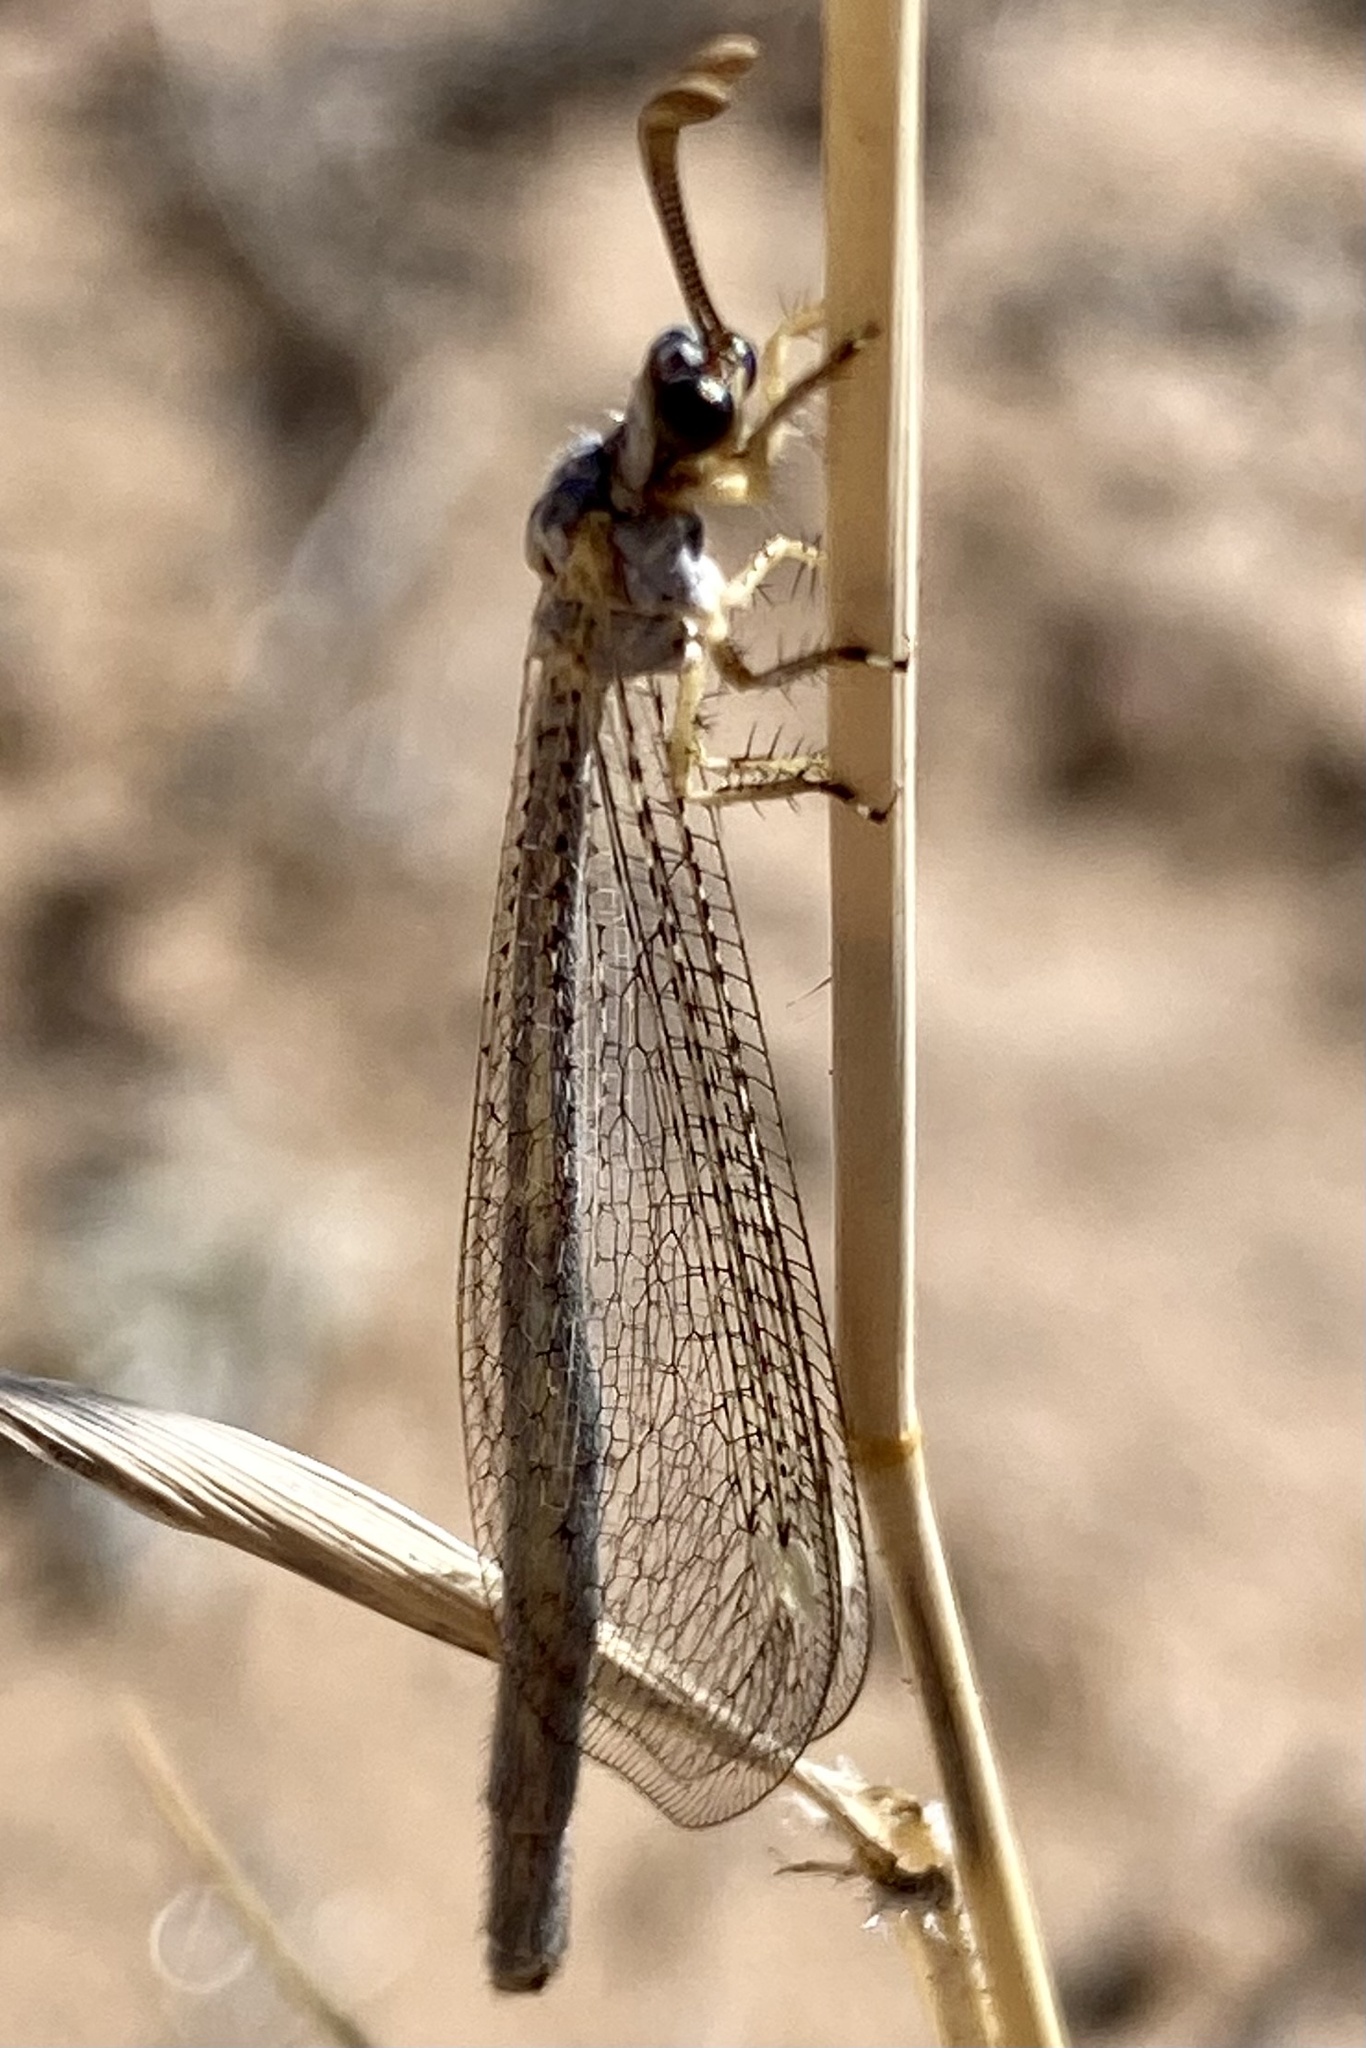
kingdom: Animalia
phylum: Arthropoda
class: Insecta
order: Neuroptera
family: Myrmeleontidae
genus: Scotoleon
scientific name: Scotoleon
